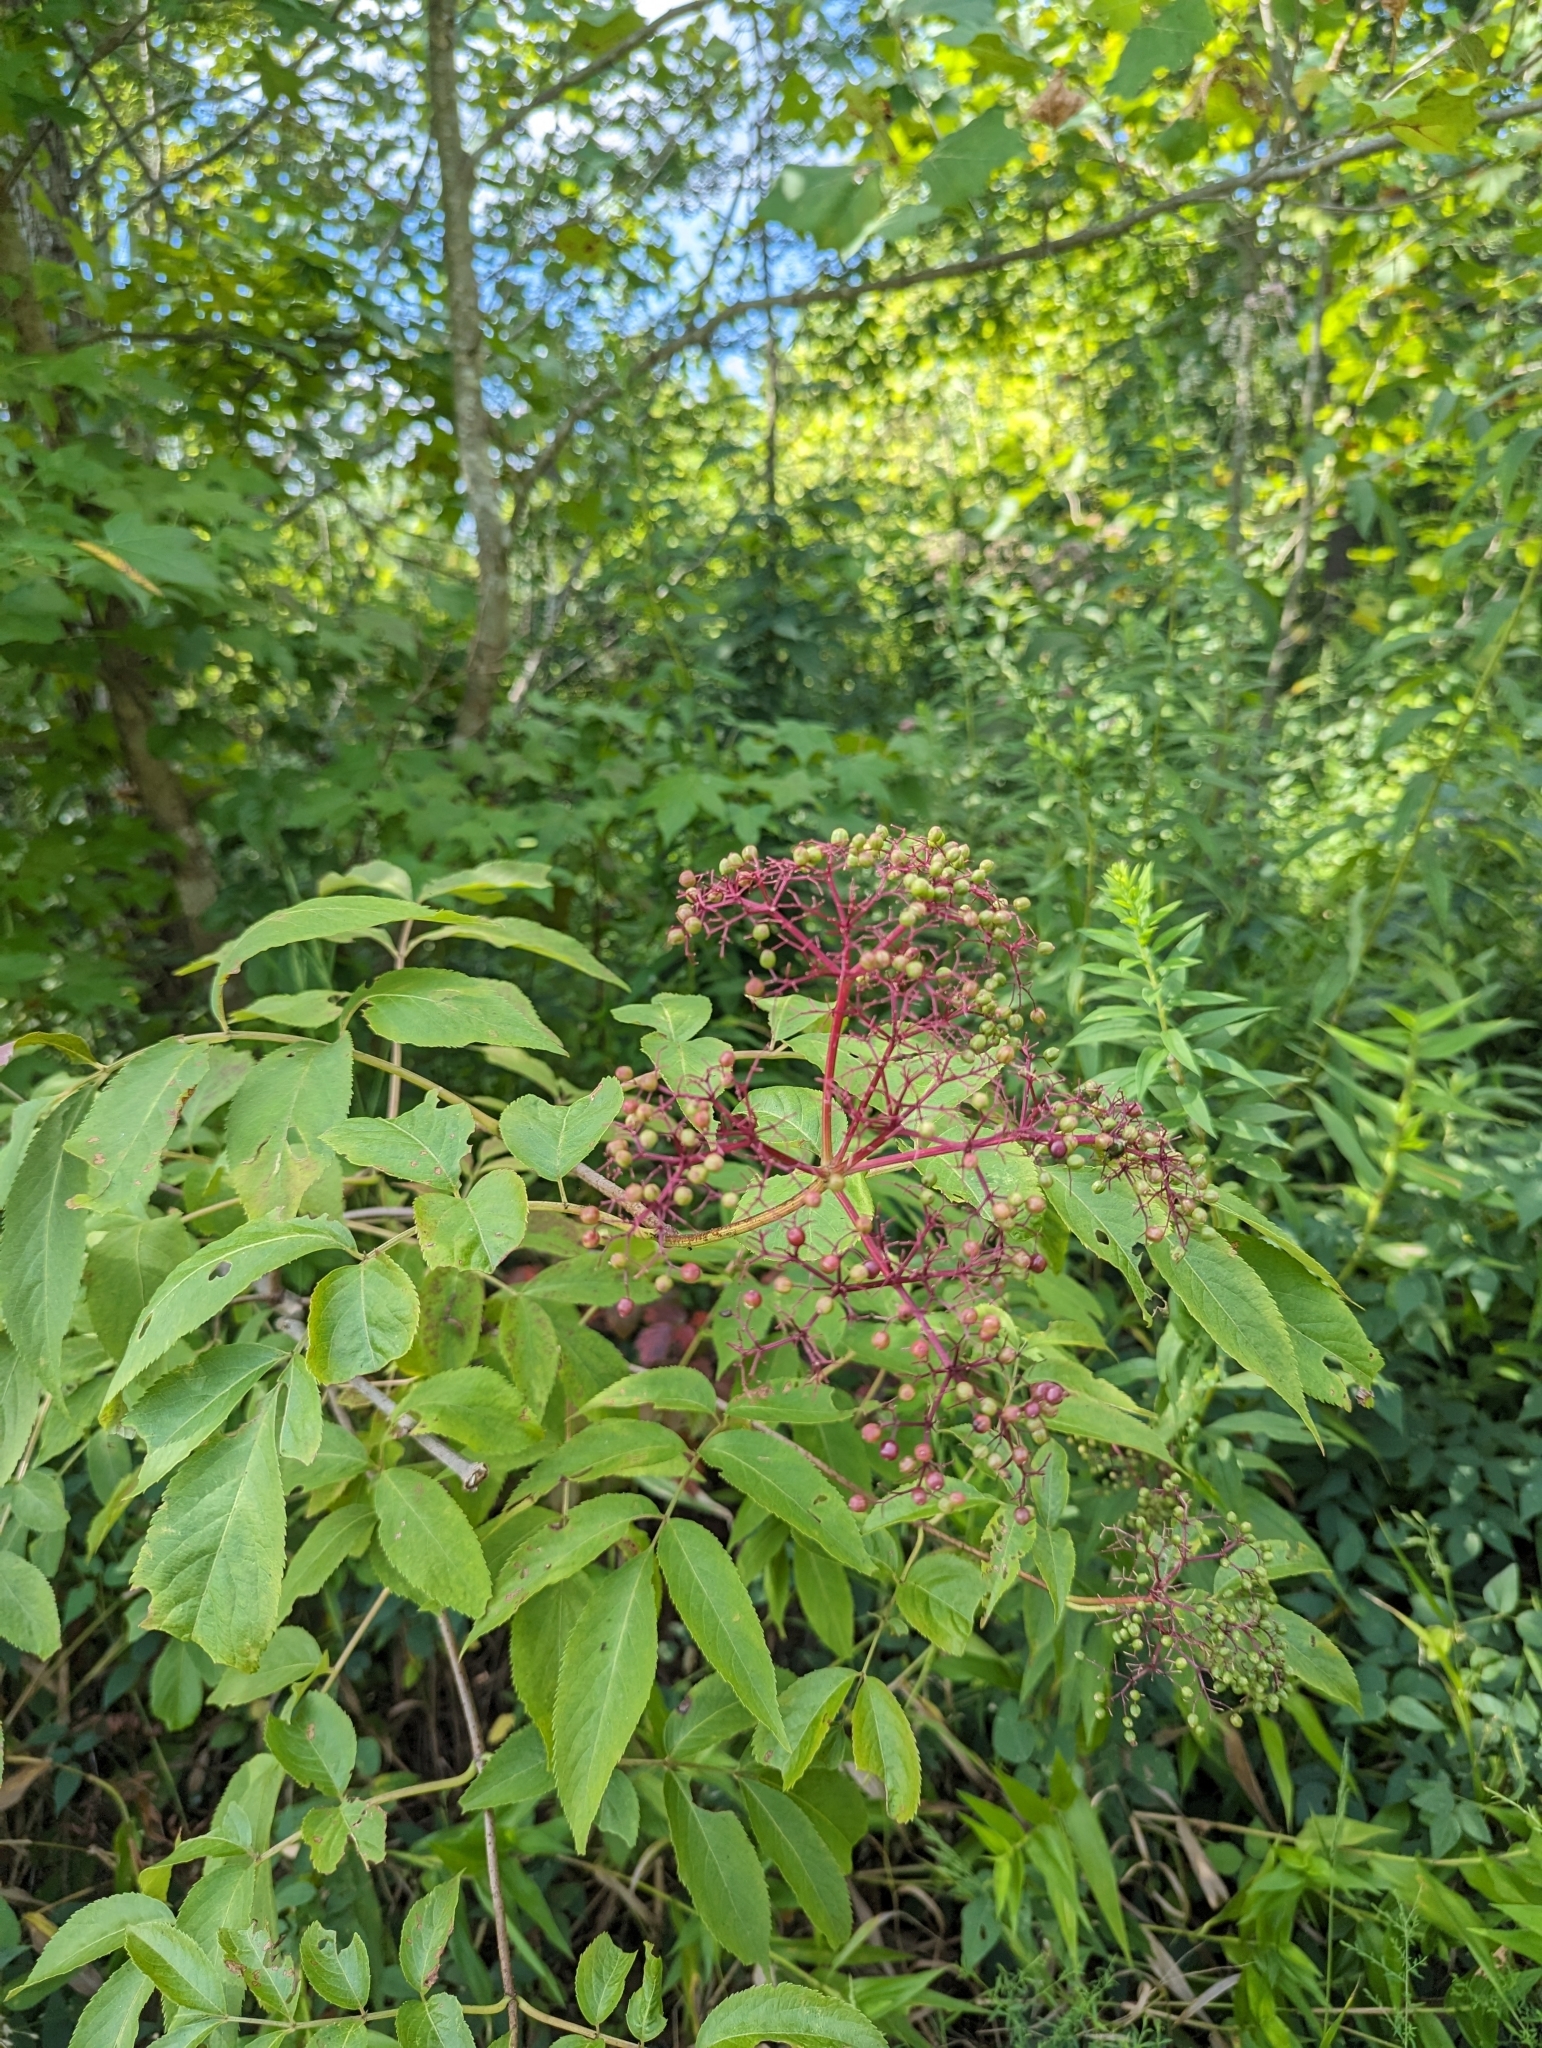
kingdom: Plantae
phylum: Tracheophyta
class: Magnoliopsida
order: Dipsacales
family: Viburnaceae
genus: Sambucus
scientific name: Sambucus canadensis
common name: American elder
